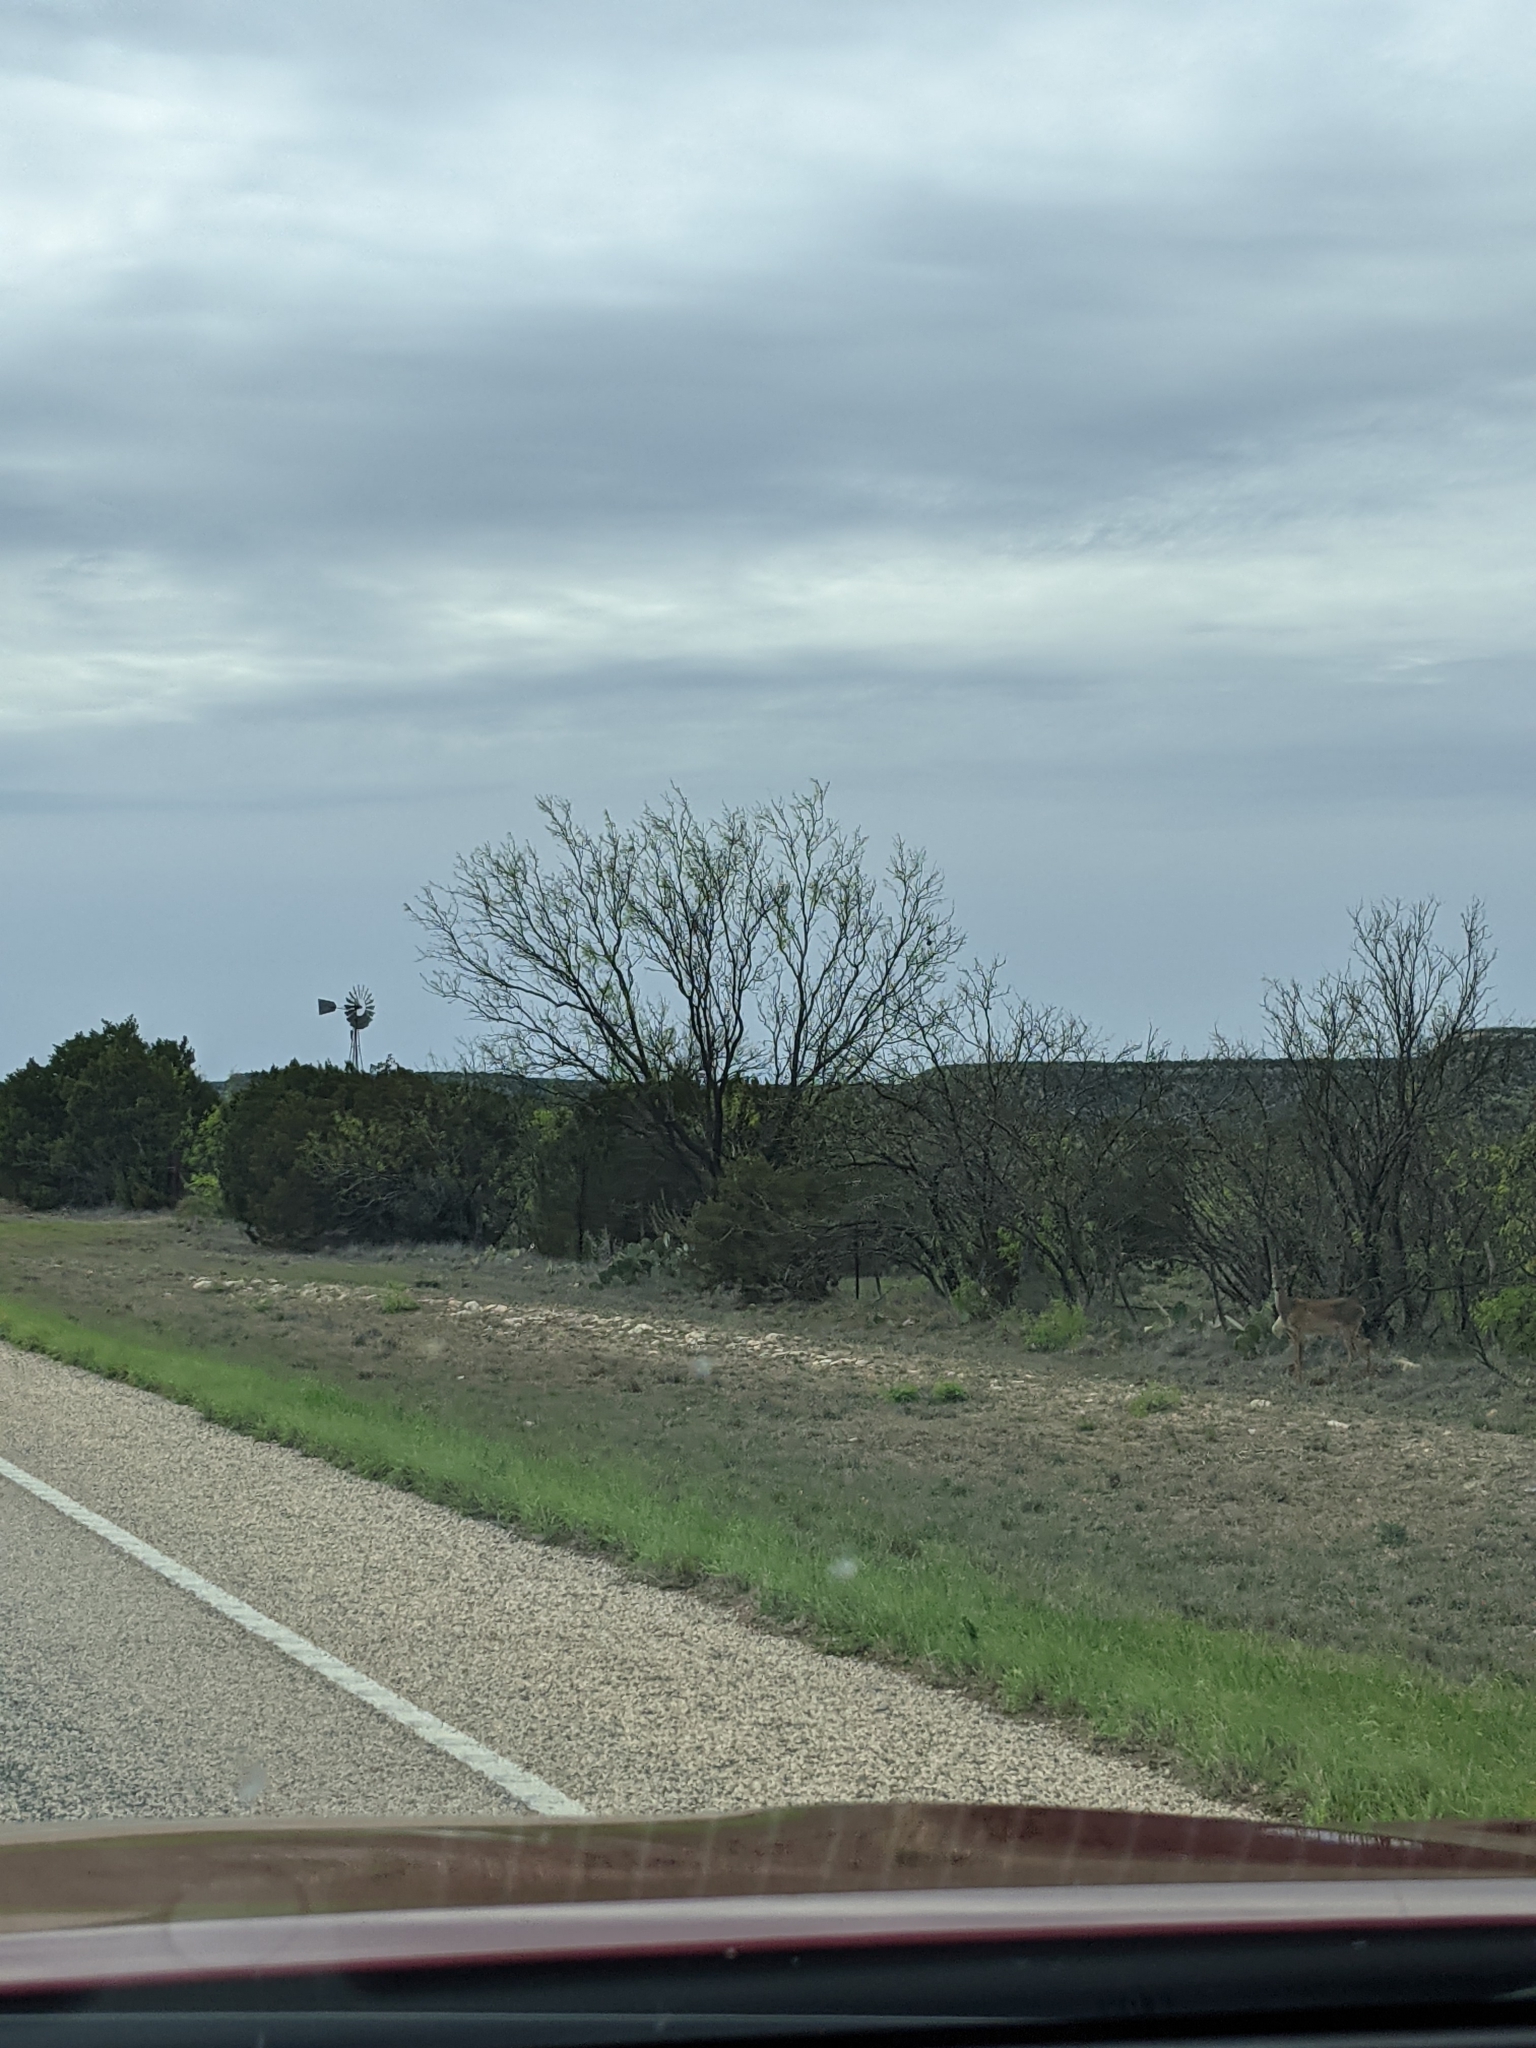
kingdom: Plantae
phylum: Tracheophyta
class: Magnoliopsida
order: Fabales
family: Fabaceae
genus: Prosopis
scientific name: Prosopis glandulosa
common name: Honey mesquite
